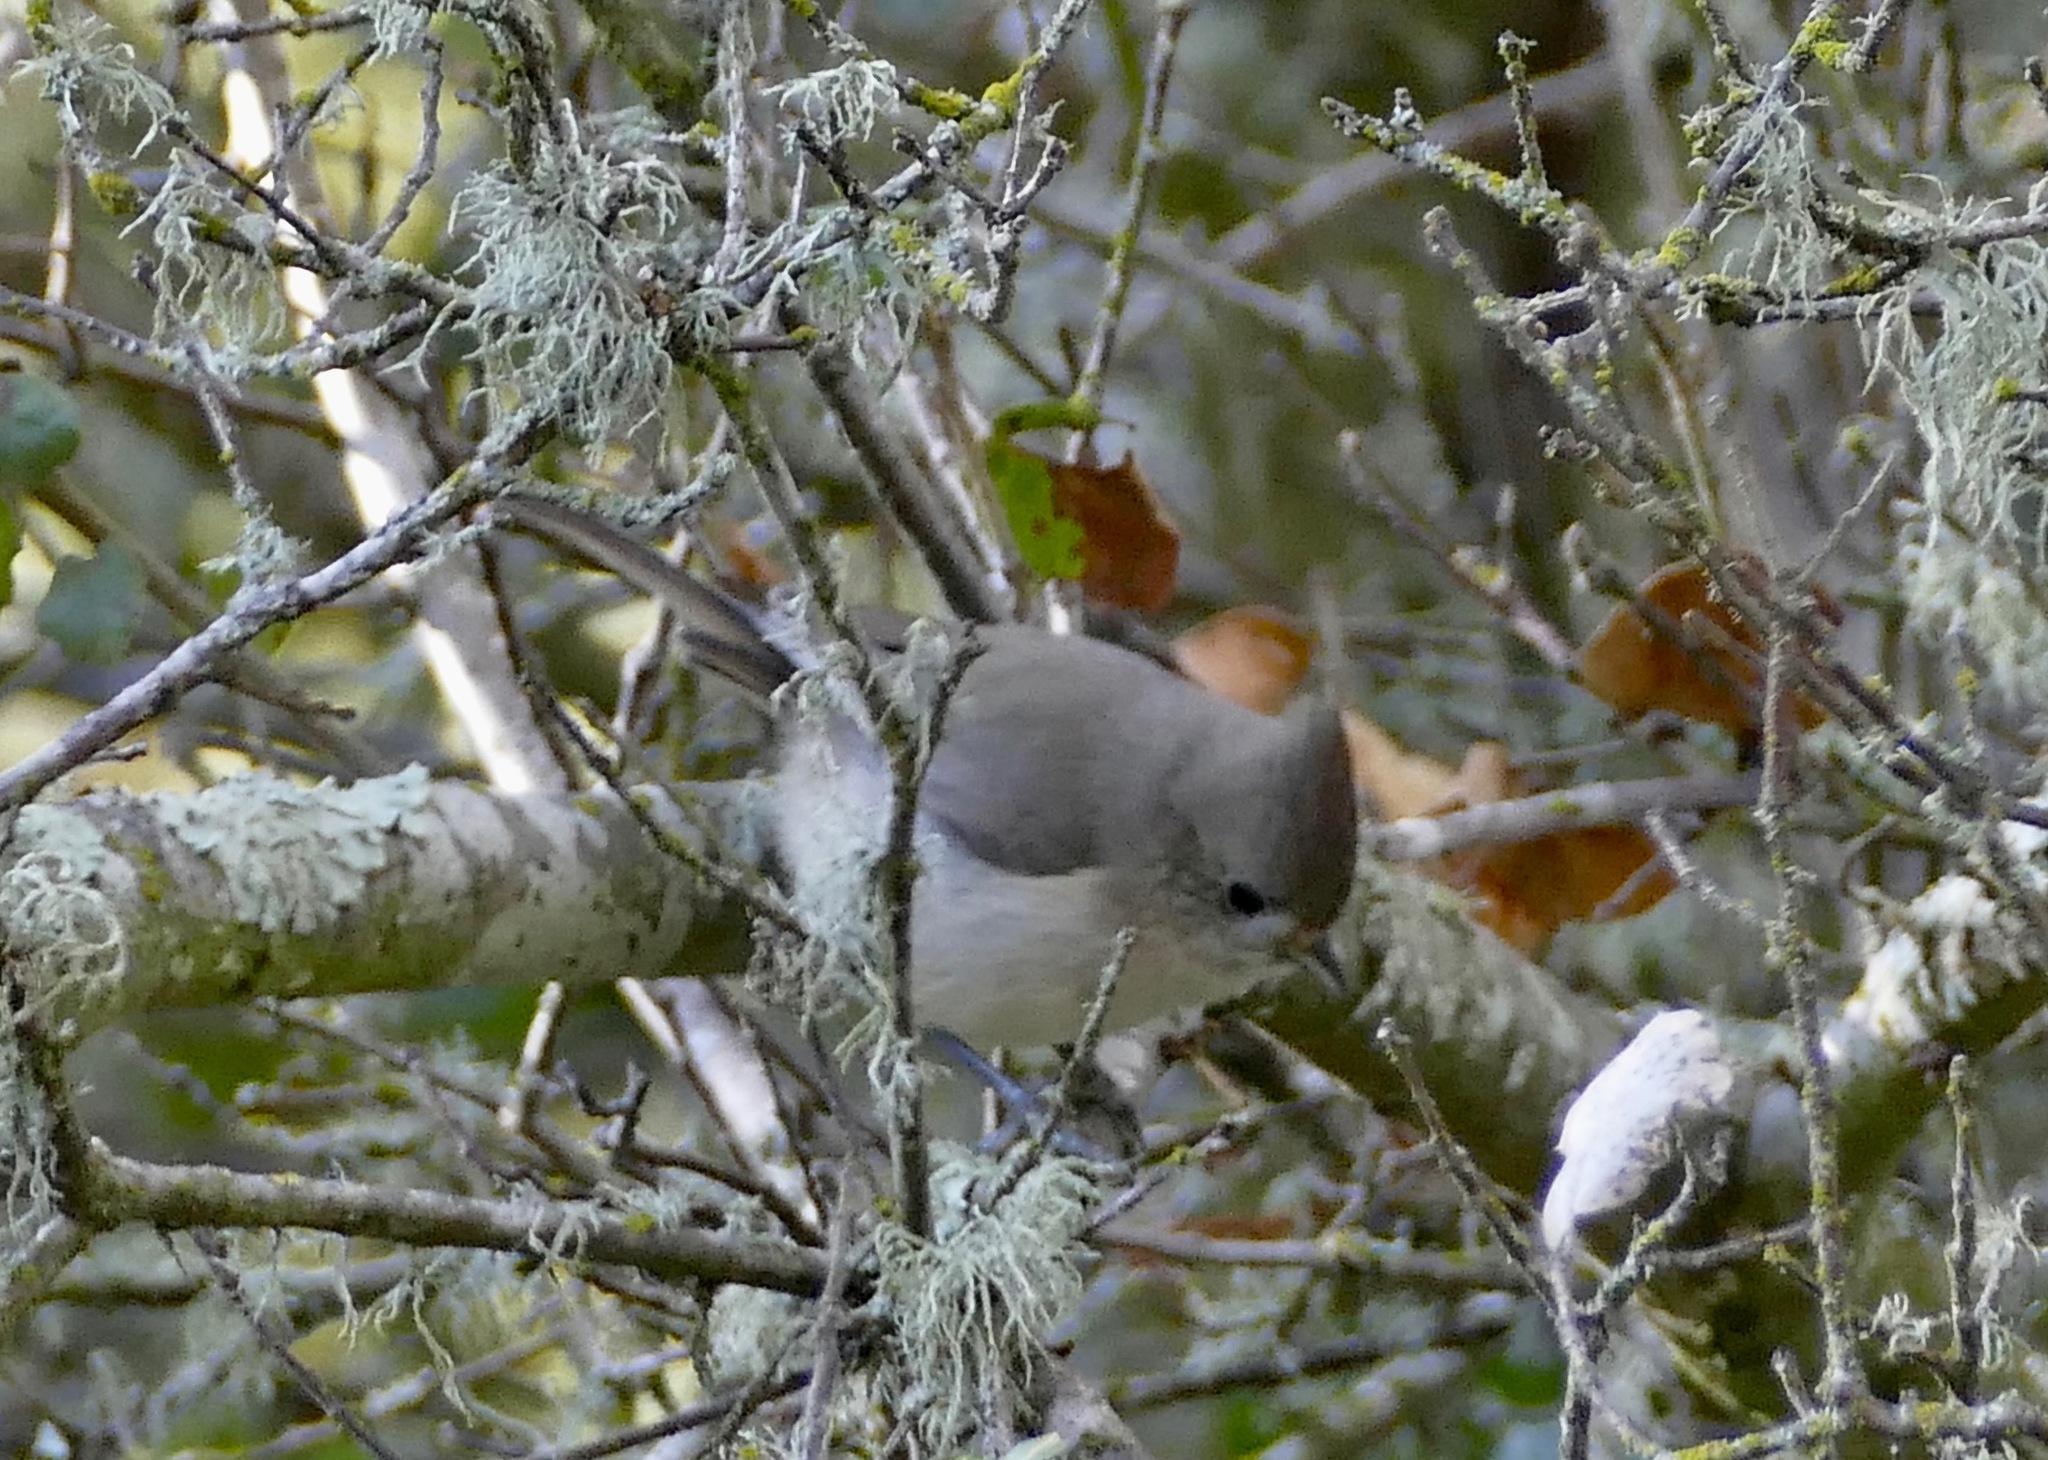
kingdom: Animalia
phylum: Chordata
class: Aves
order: Passeriformes
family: Paridae
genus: Baeolophus
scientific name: Baeolophus inornatus
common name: Oak titmouse
